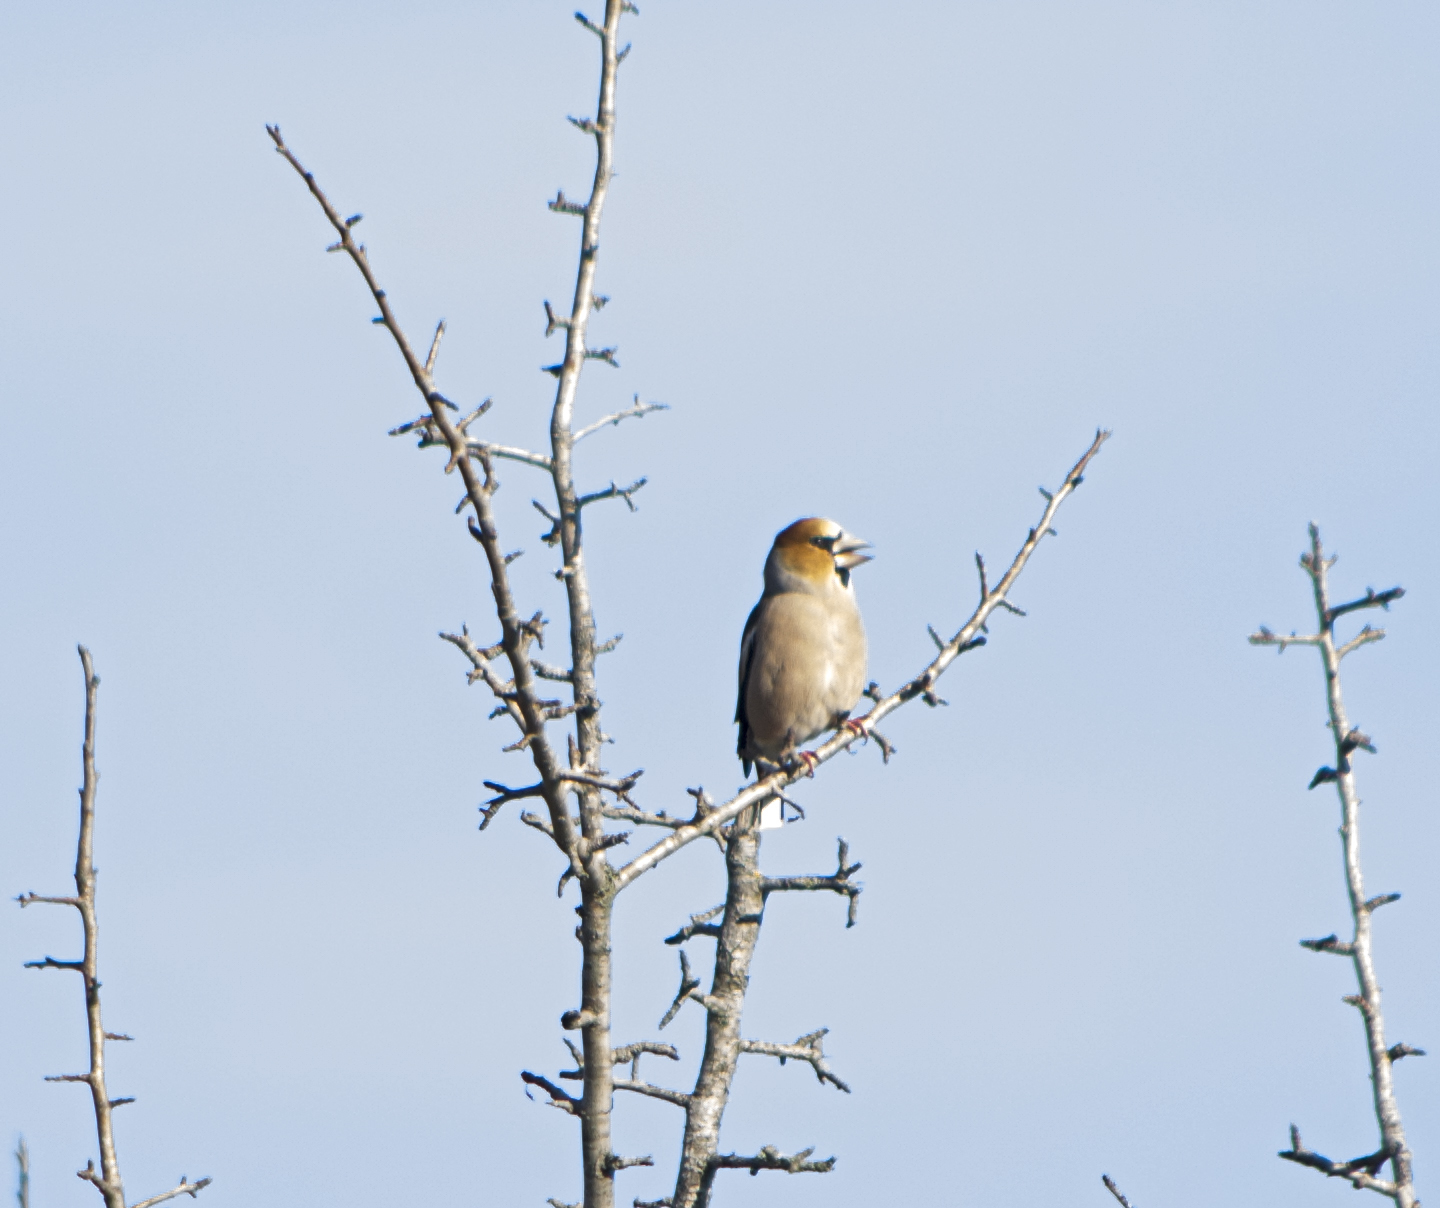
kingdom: Animalia
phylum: Chordata
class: Aves
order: Passeriformes
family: Fringillidae
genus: Coccothraustes
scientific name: Coccothraustes coccothraustes
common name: Hawfinch
